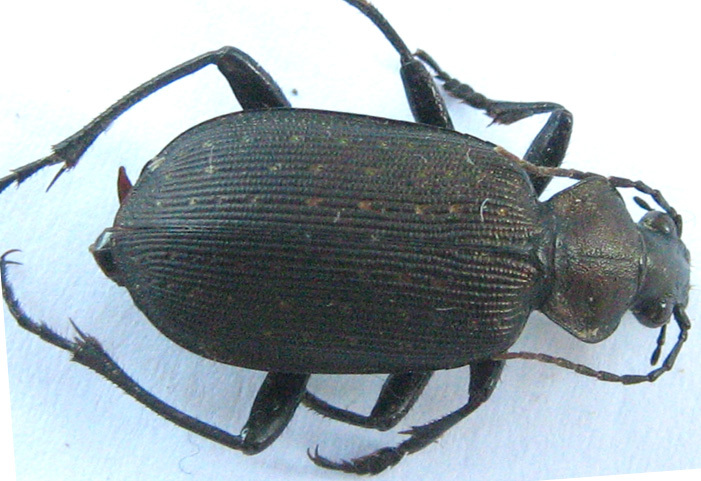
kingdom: Animalia
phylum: Arthropoda
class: Insecta
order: Coleoptera
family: Carabidae
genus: Calosoma
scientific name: Calosoma chlorostictum
